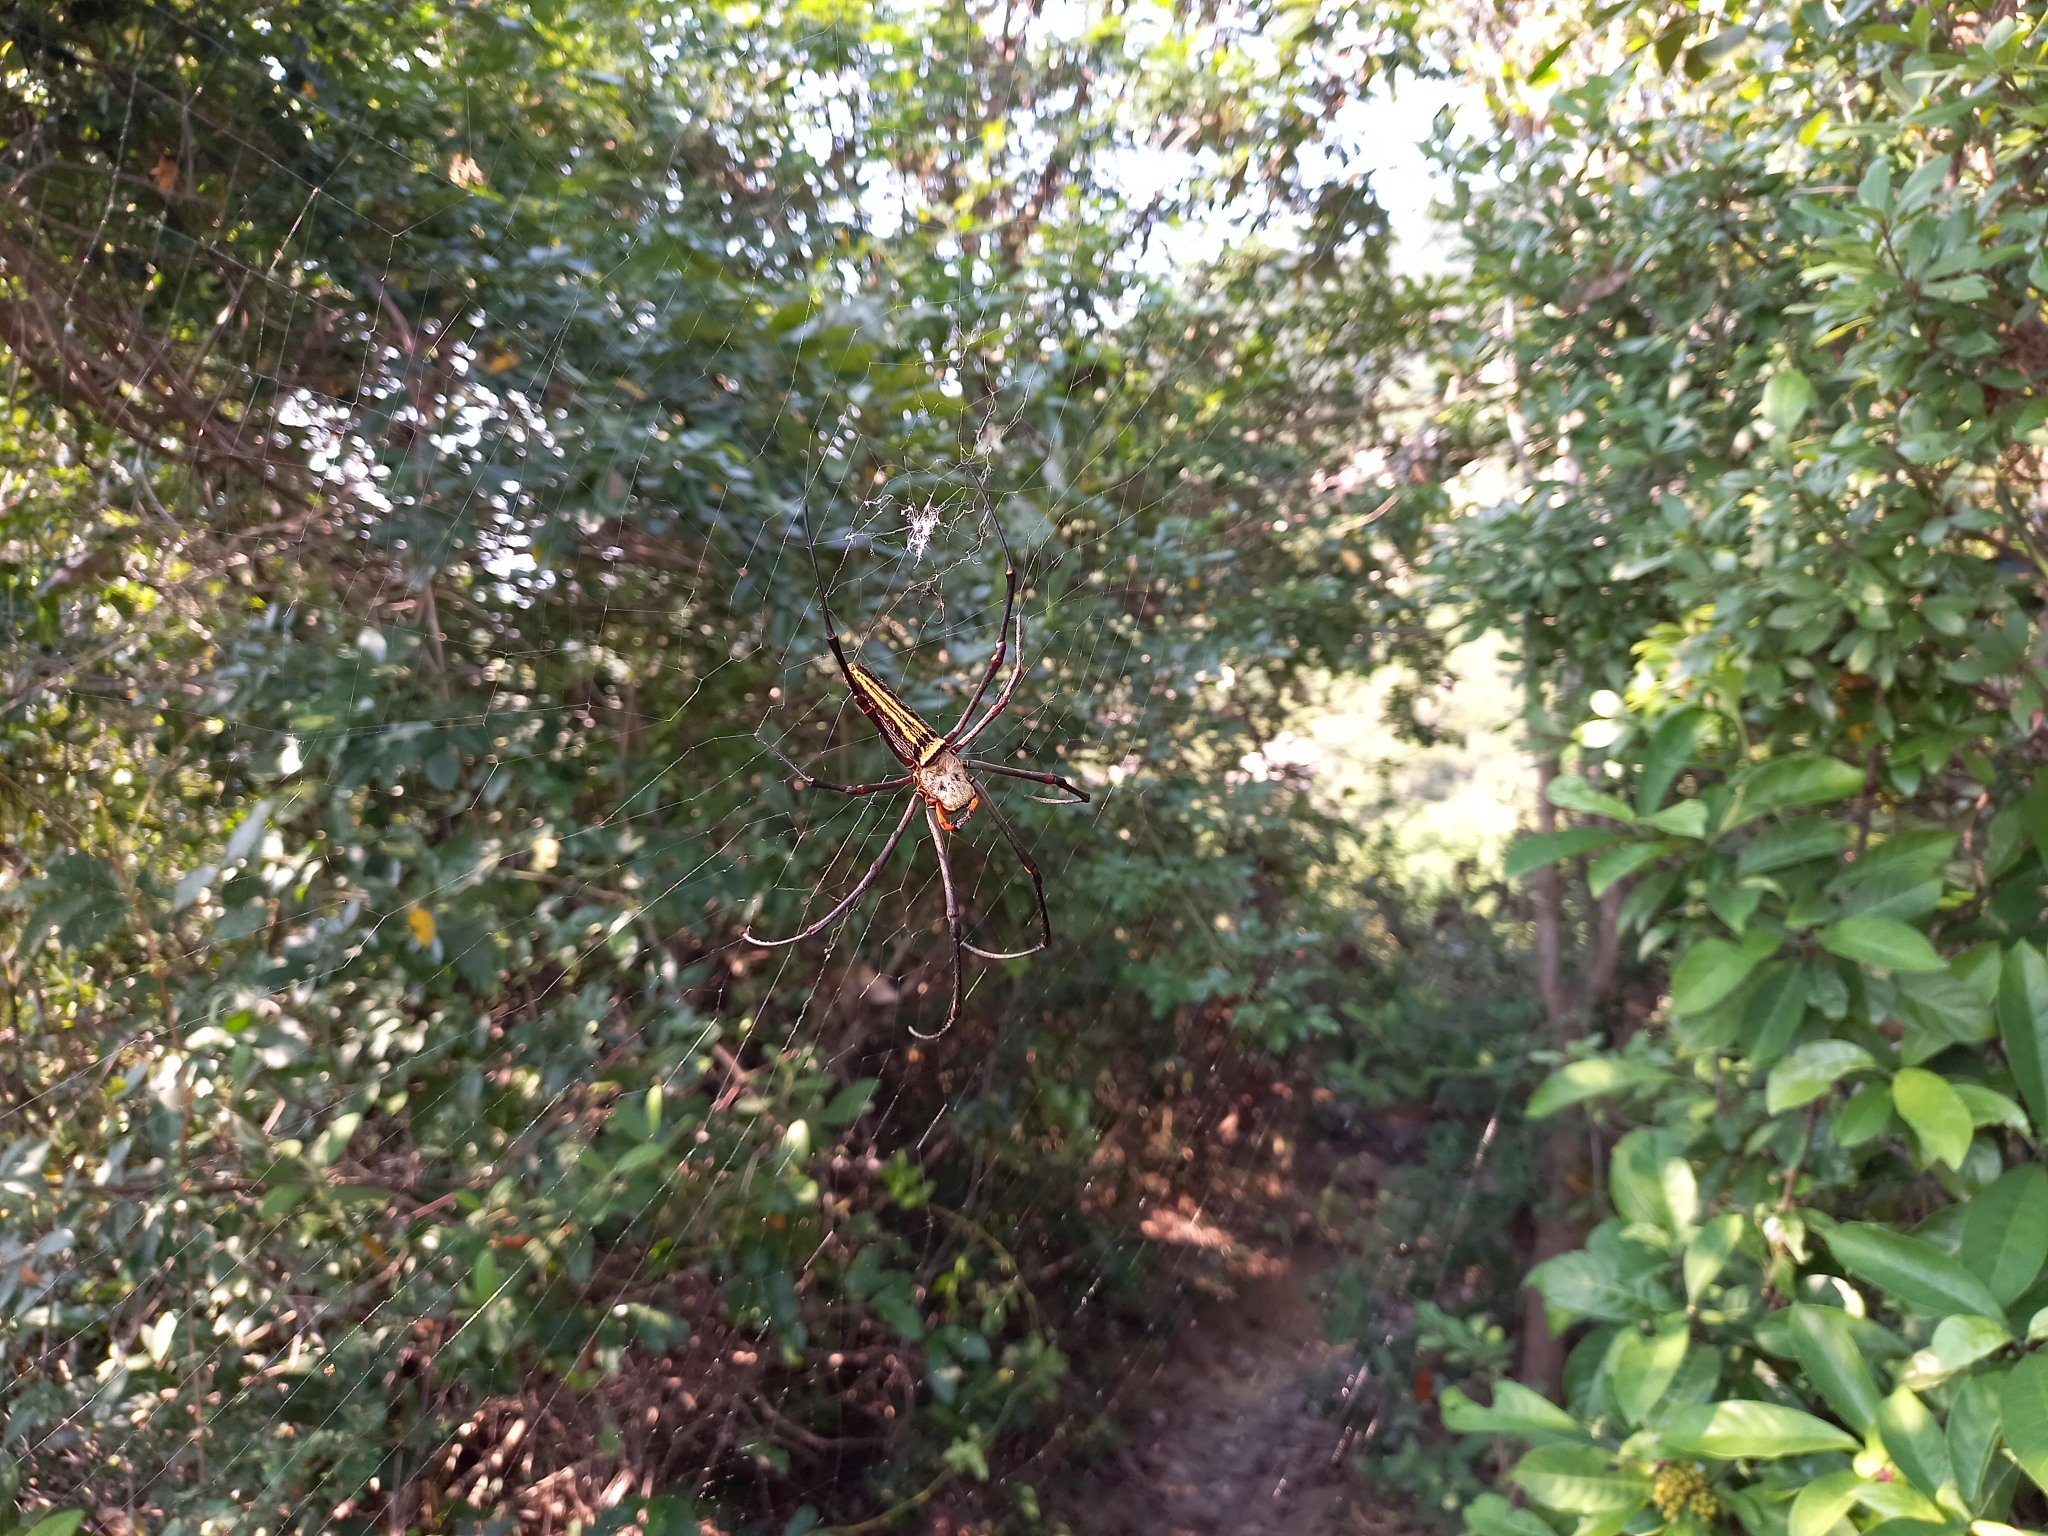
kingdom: Animalia
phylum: Arthropoda
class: Arachnida
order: Araneae
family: Araneidae
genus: Nephila
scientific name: Nephila pilipes
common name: Giant golden orb weaver
